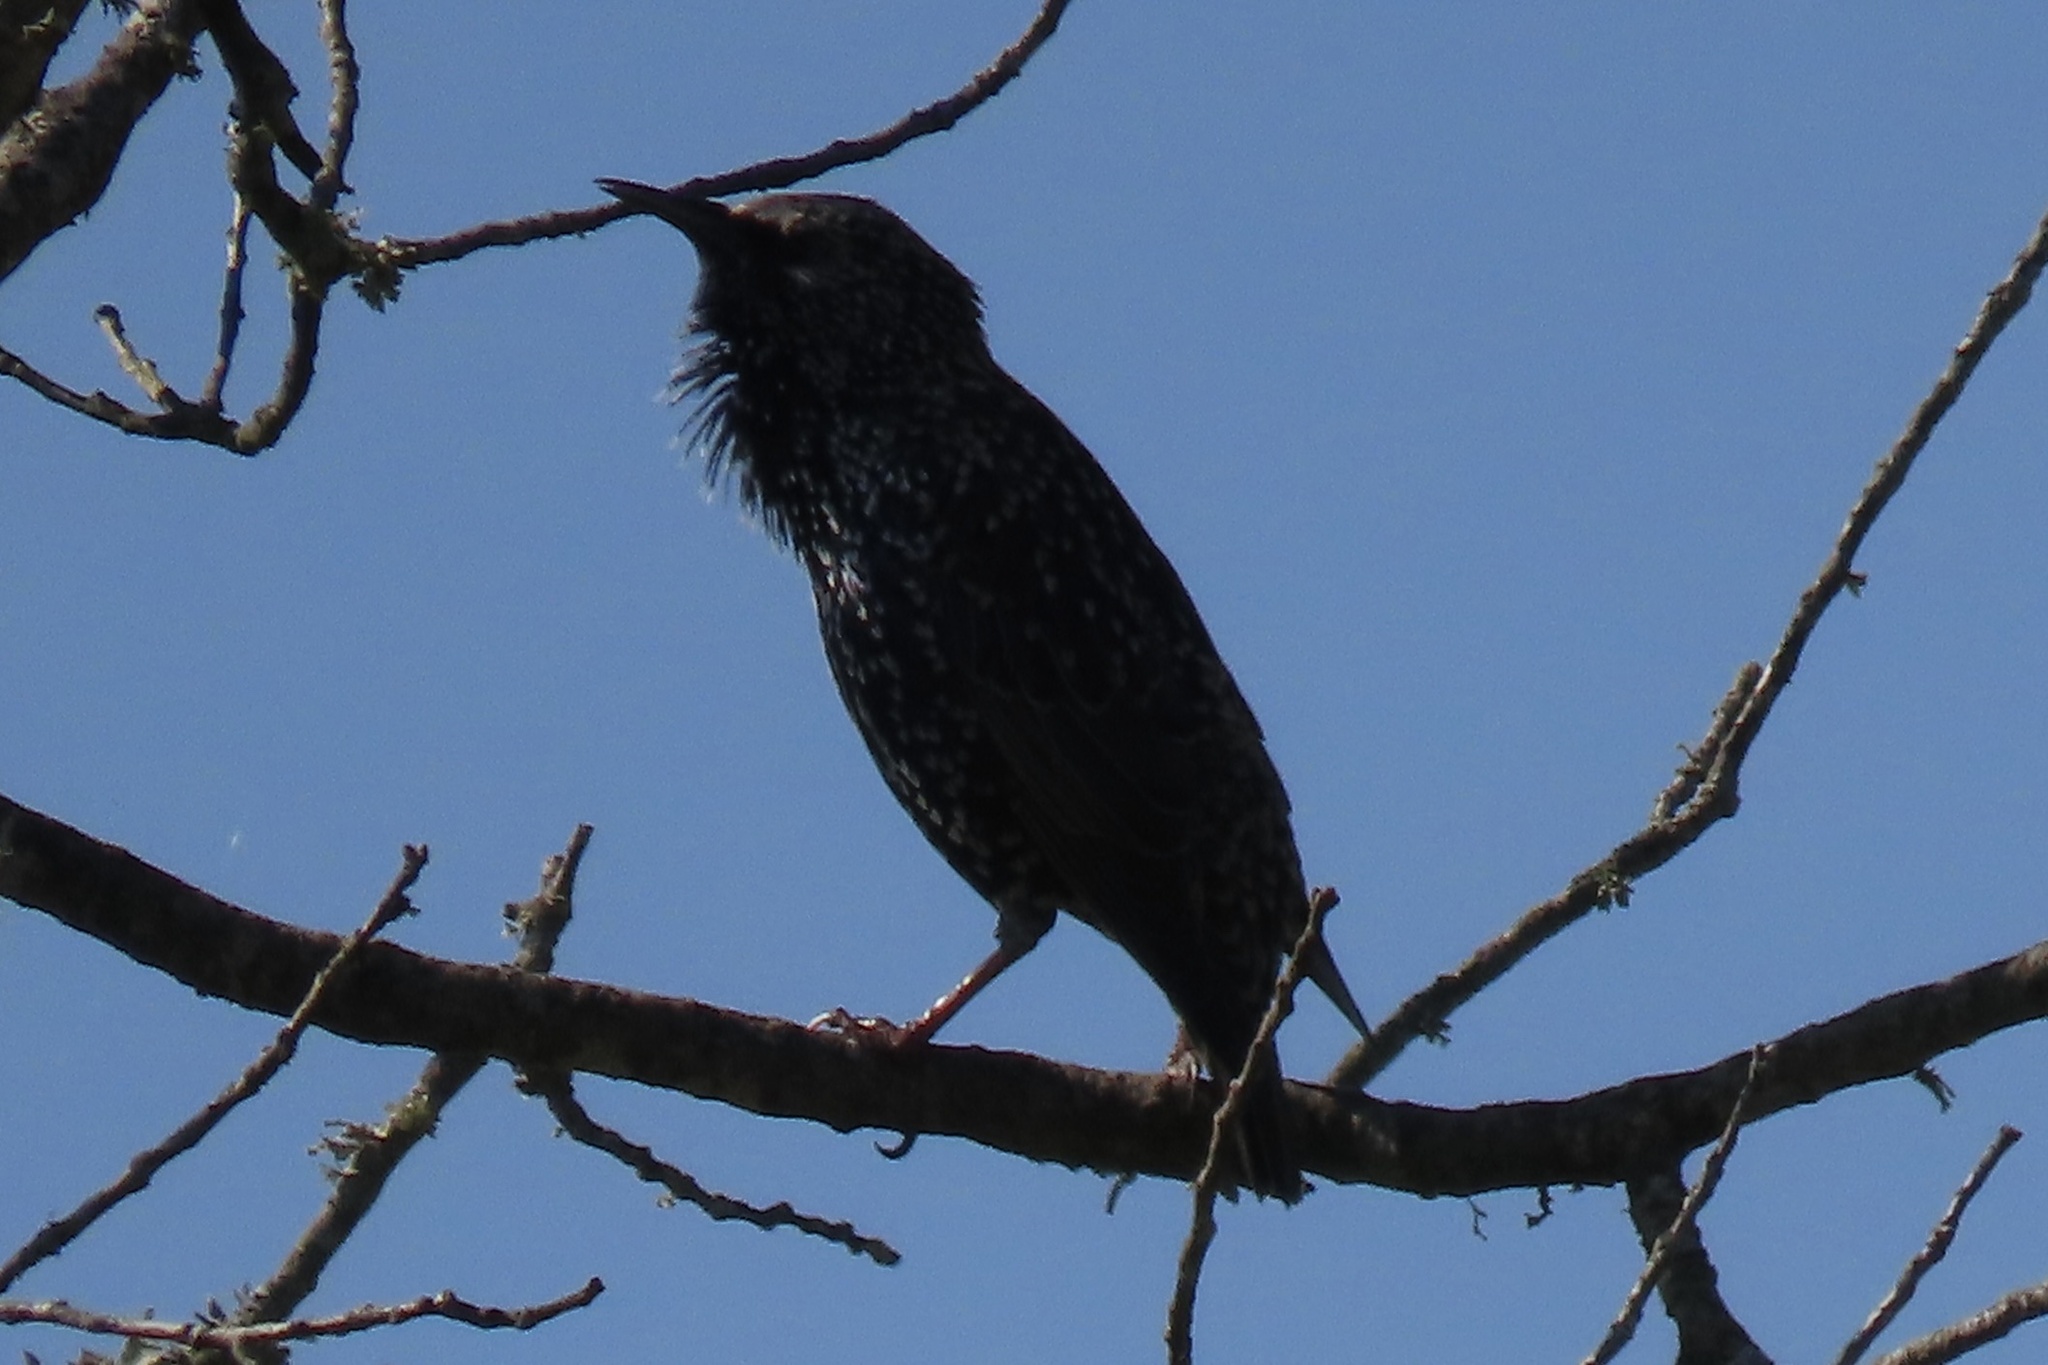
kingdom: Animalia
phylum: Chordata
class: Aves
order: Passeriformes
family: Sturnidae
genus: Sturnus
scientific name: Sturnus vulgaris
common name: Common starling
